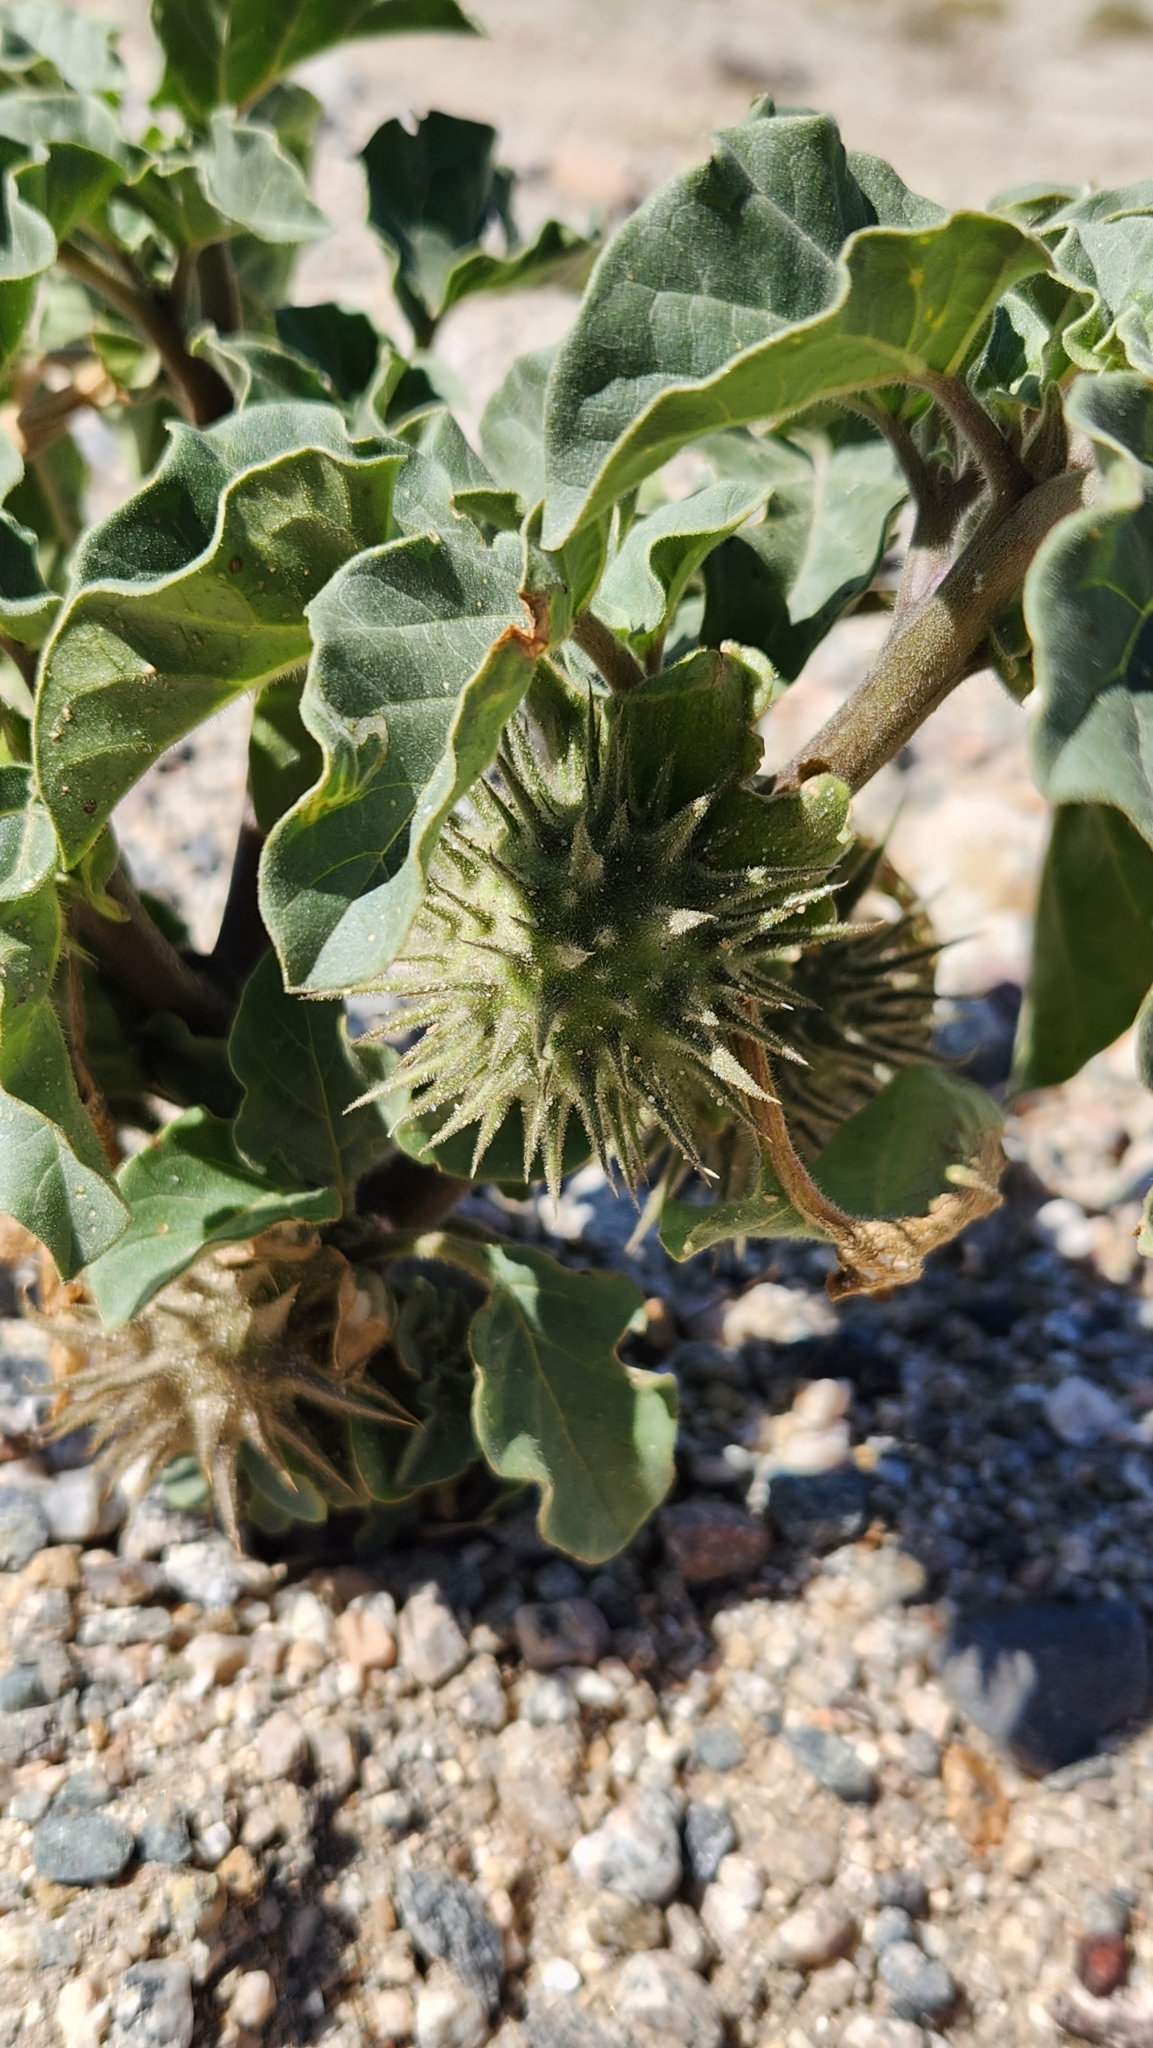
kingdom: Plantae
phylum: Tracheophyta
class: Magnoliopsida
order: Solanales
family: Solanaceae
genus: Datura
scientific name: Datura discolor
